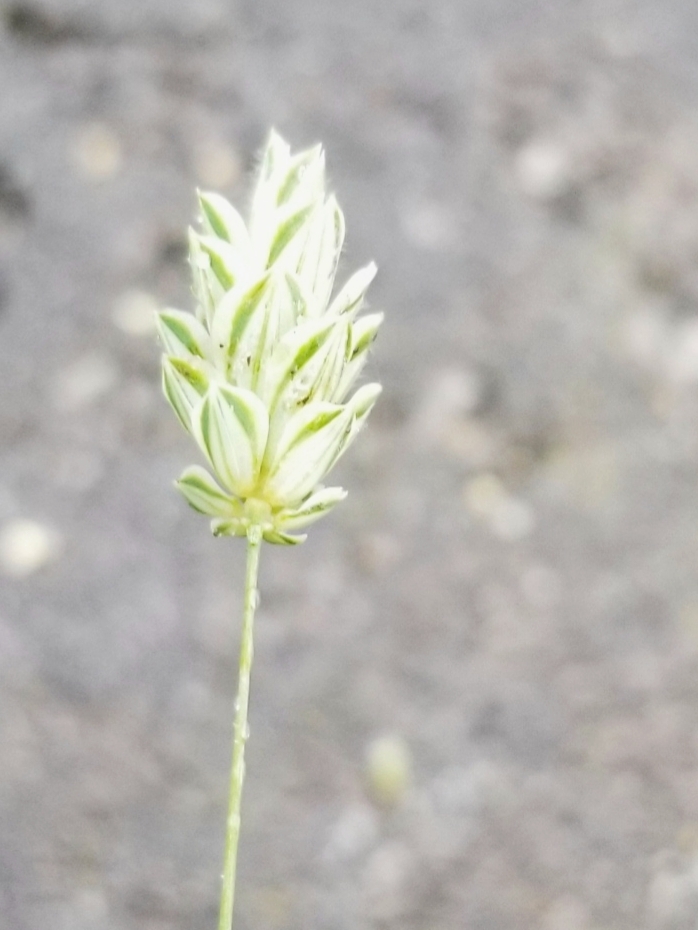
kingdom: Plantae
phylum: Tracheophyta
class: Liliopsida
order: Poales
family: Poaceae
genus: Phalaris
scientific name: Phalaris canariensis
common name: Annual canarygrass
